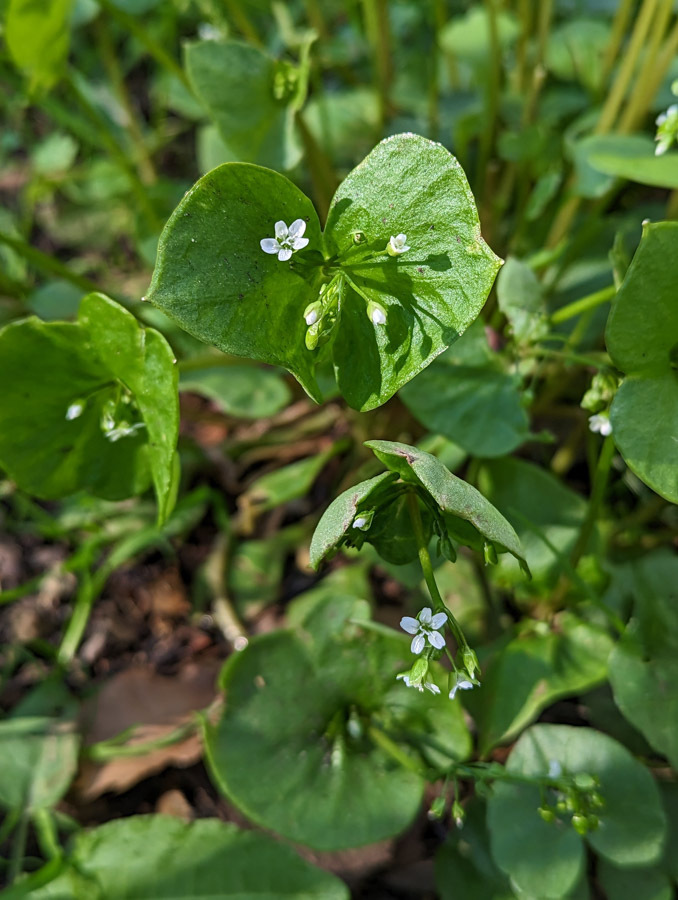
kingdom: Plantae
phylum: Tracheophyta
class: Magnoliopsida
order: Caryophyllales
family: Montiaceae
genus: Claytonia
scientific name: Claytonia perfoliata
